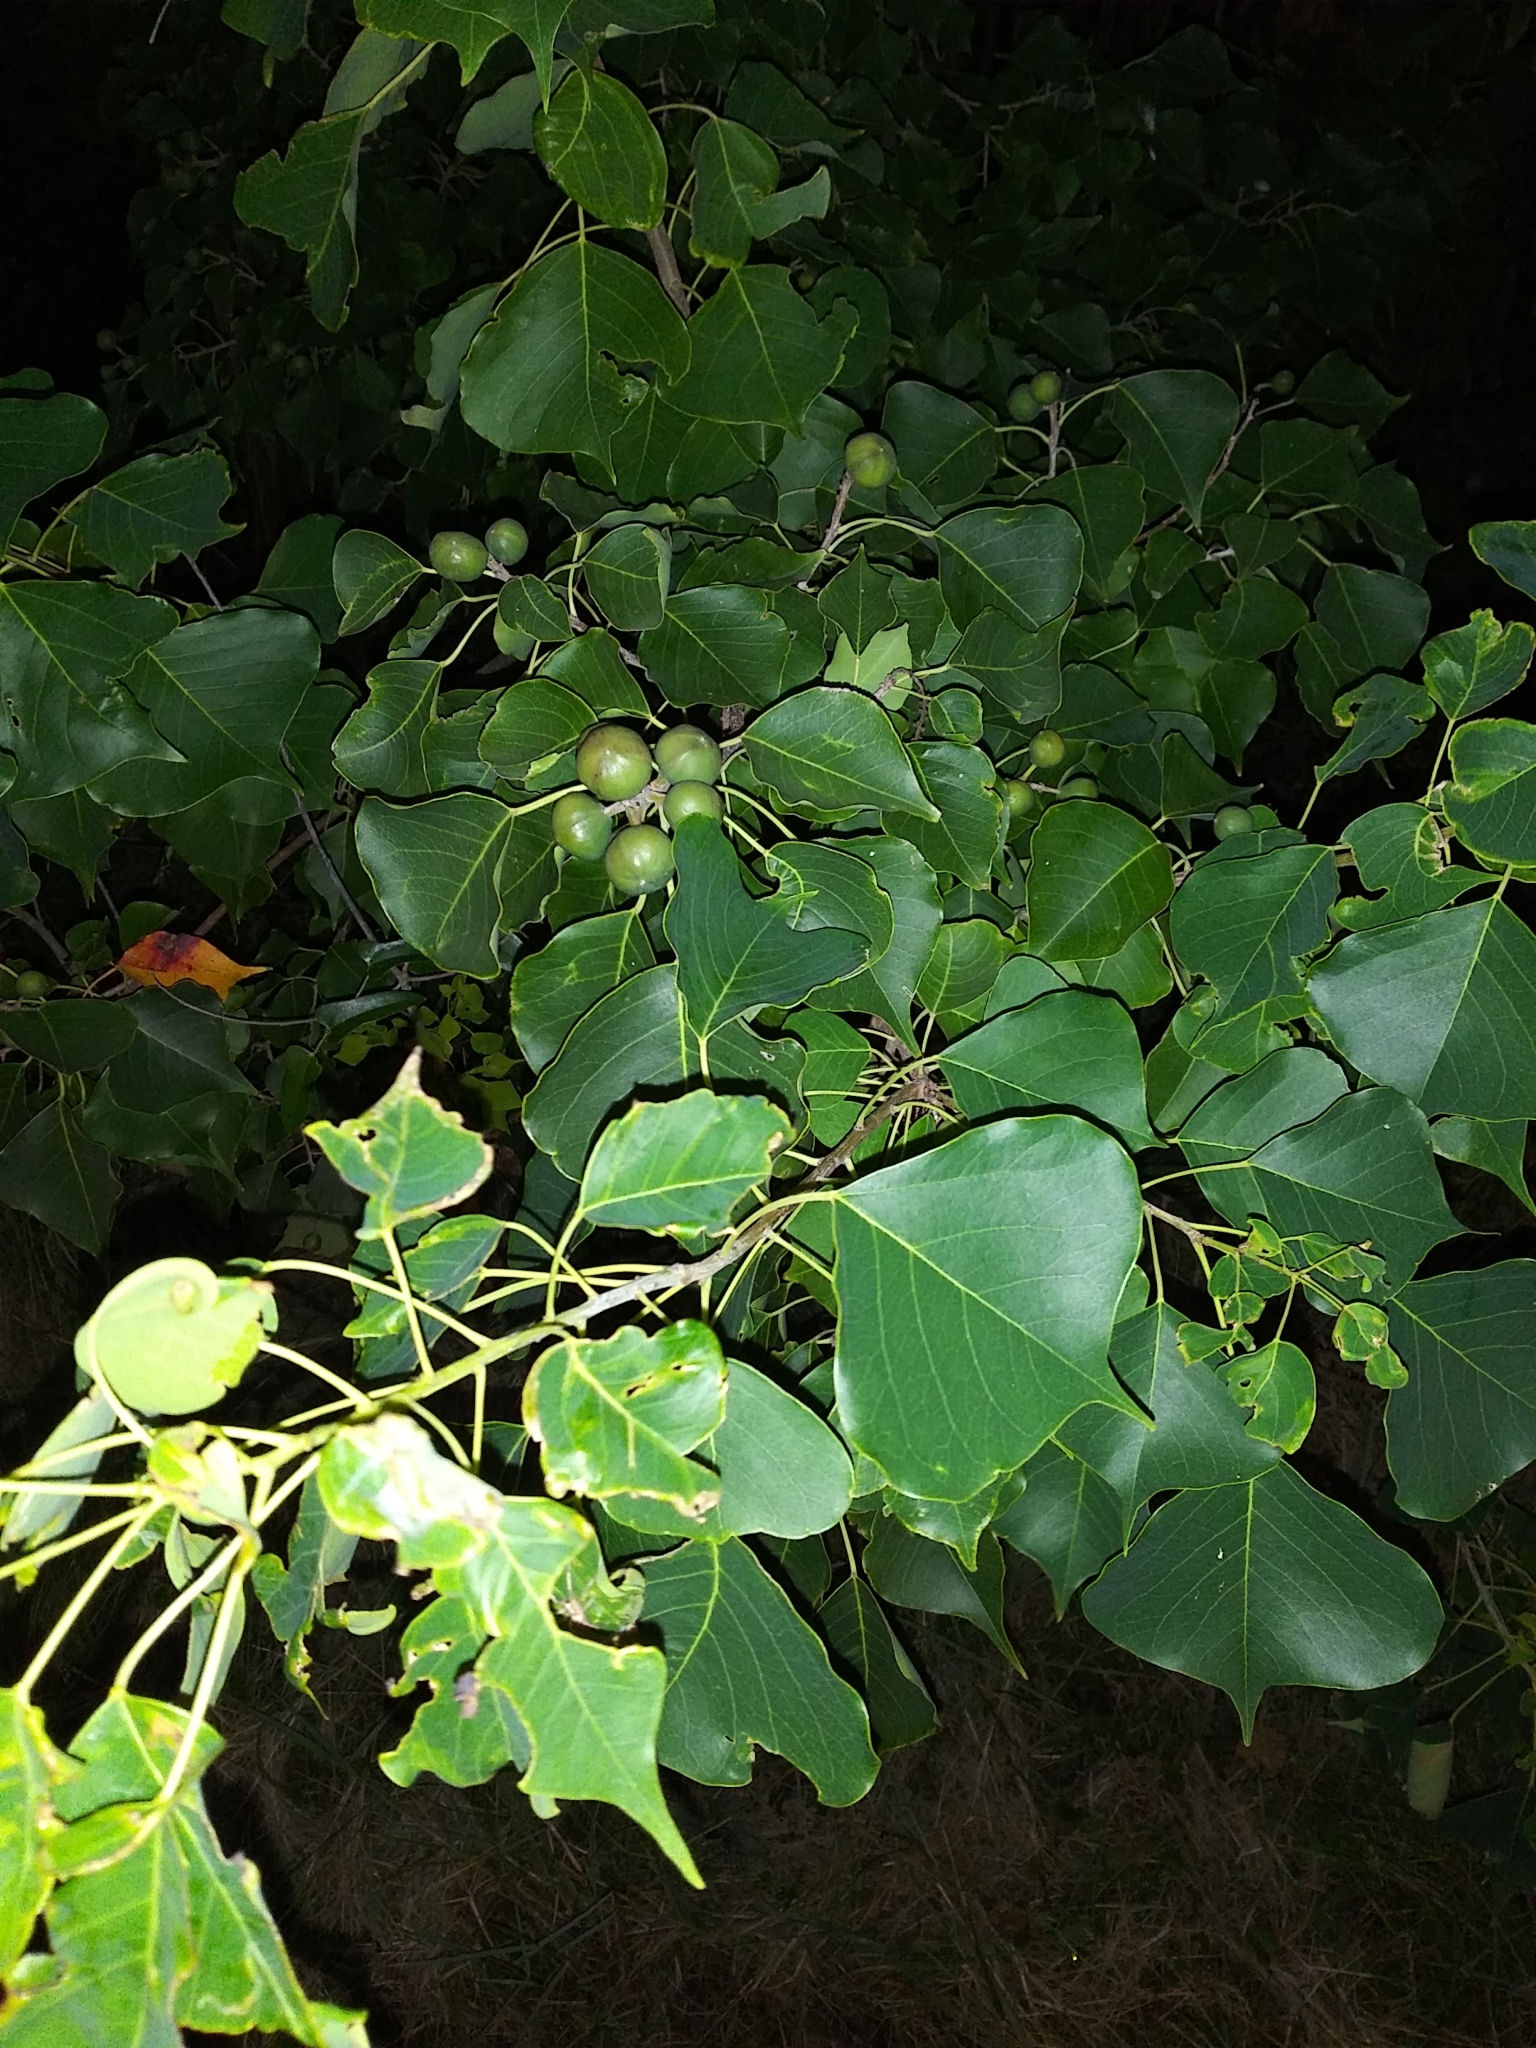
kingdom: Plantae
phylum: Tracheophyta
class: Magnoliopsida
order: Malpighiales
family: Euphorbiaceae
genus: Triadica
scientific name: Triadica sebifera
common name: Chinese tallow
